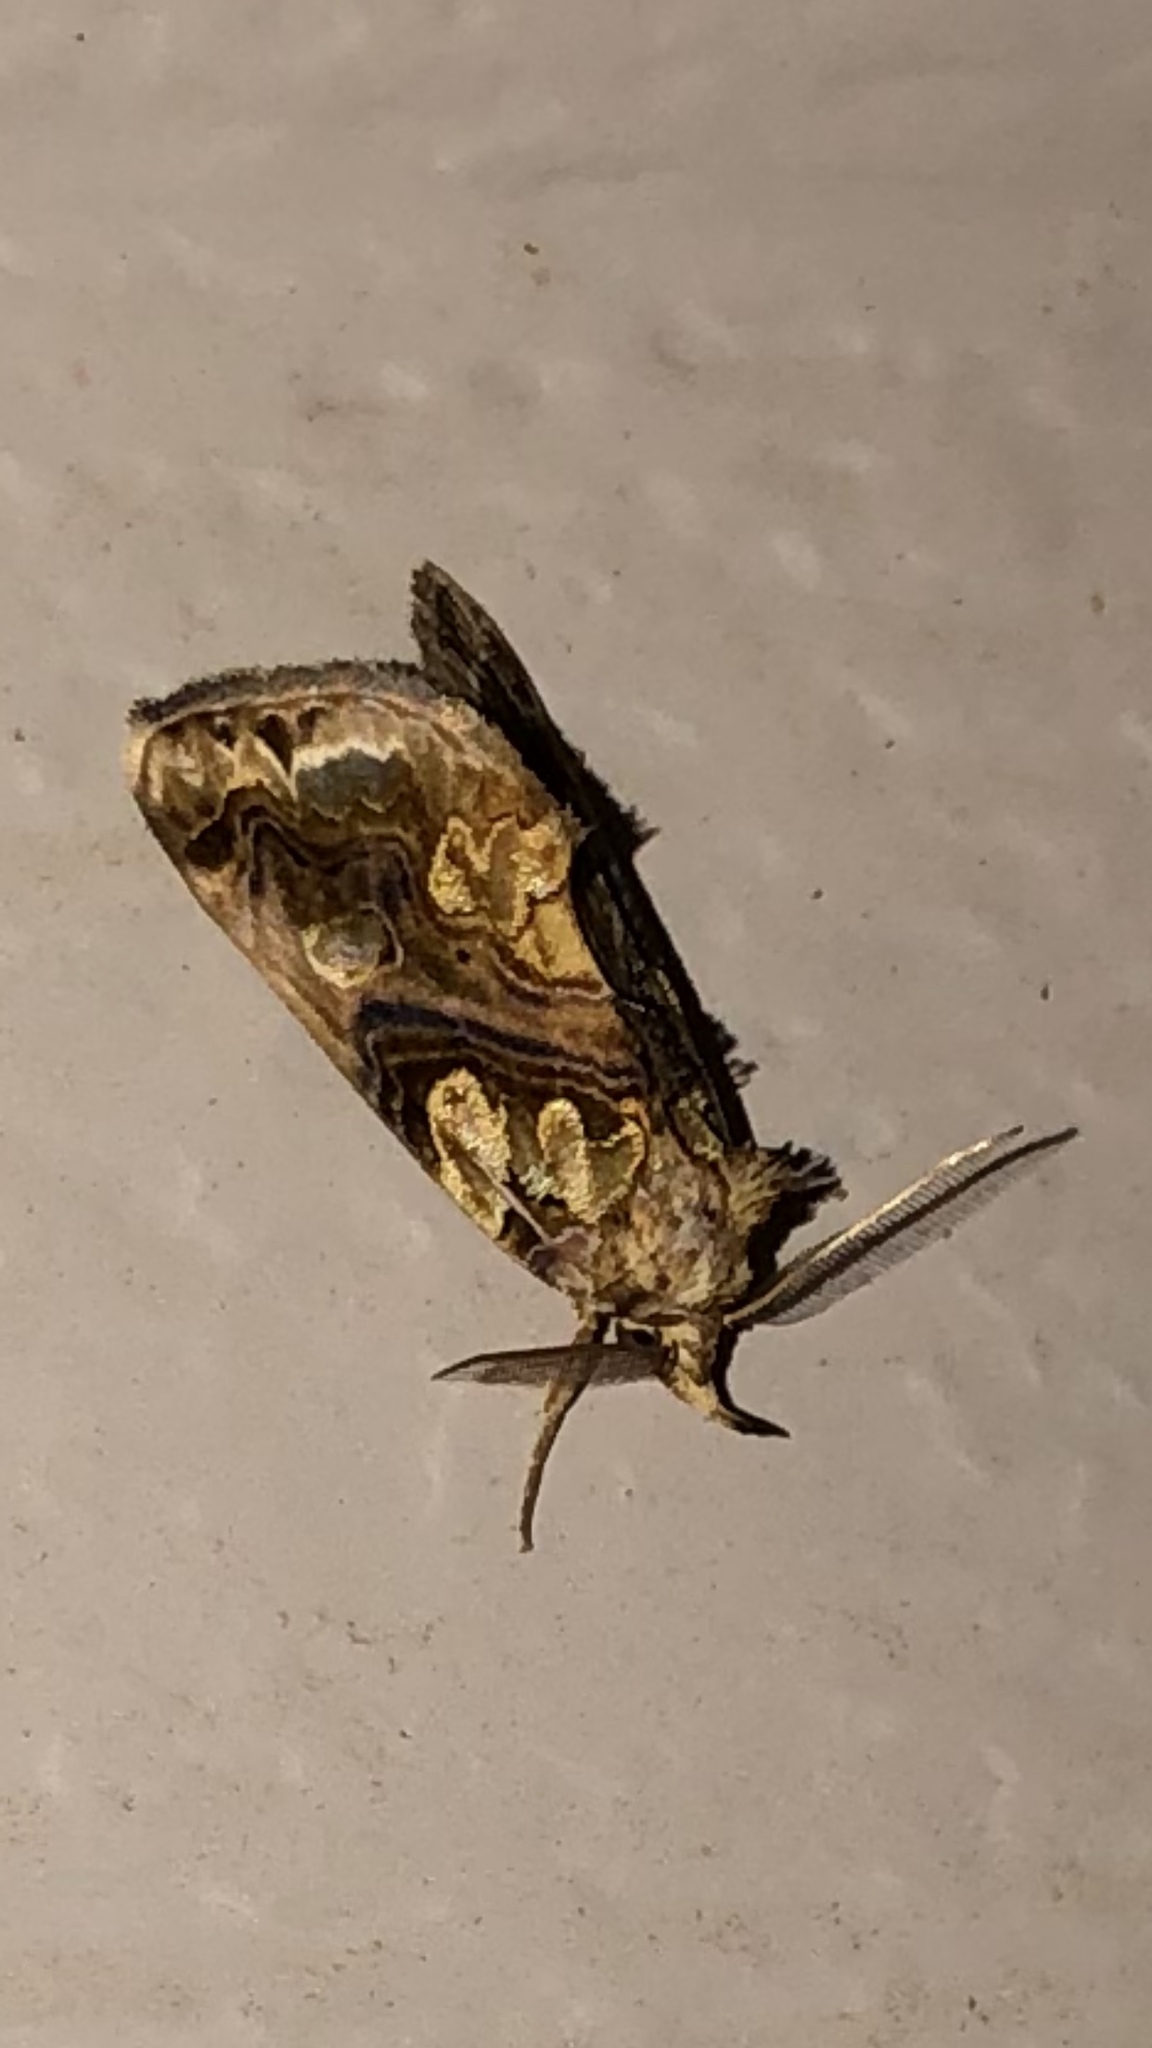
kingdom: Animalia
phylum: Arthropoda
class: Insecta
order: Lepidoptera
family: Erebidae
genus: Plusiodonta
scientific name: Plusiodonta compressipalpis
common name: Moonseed moth
